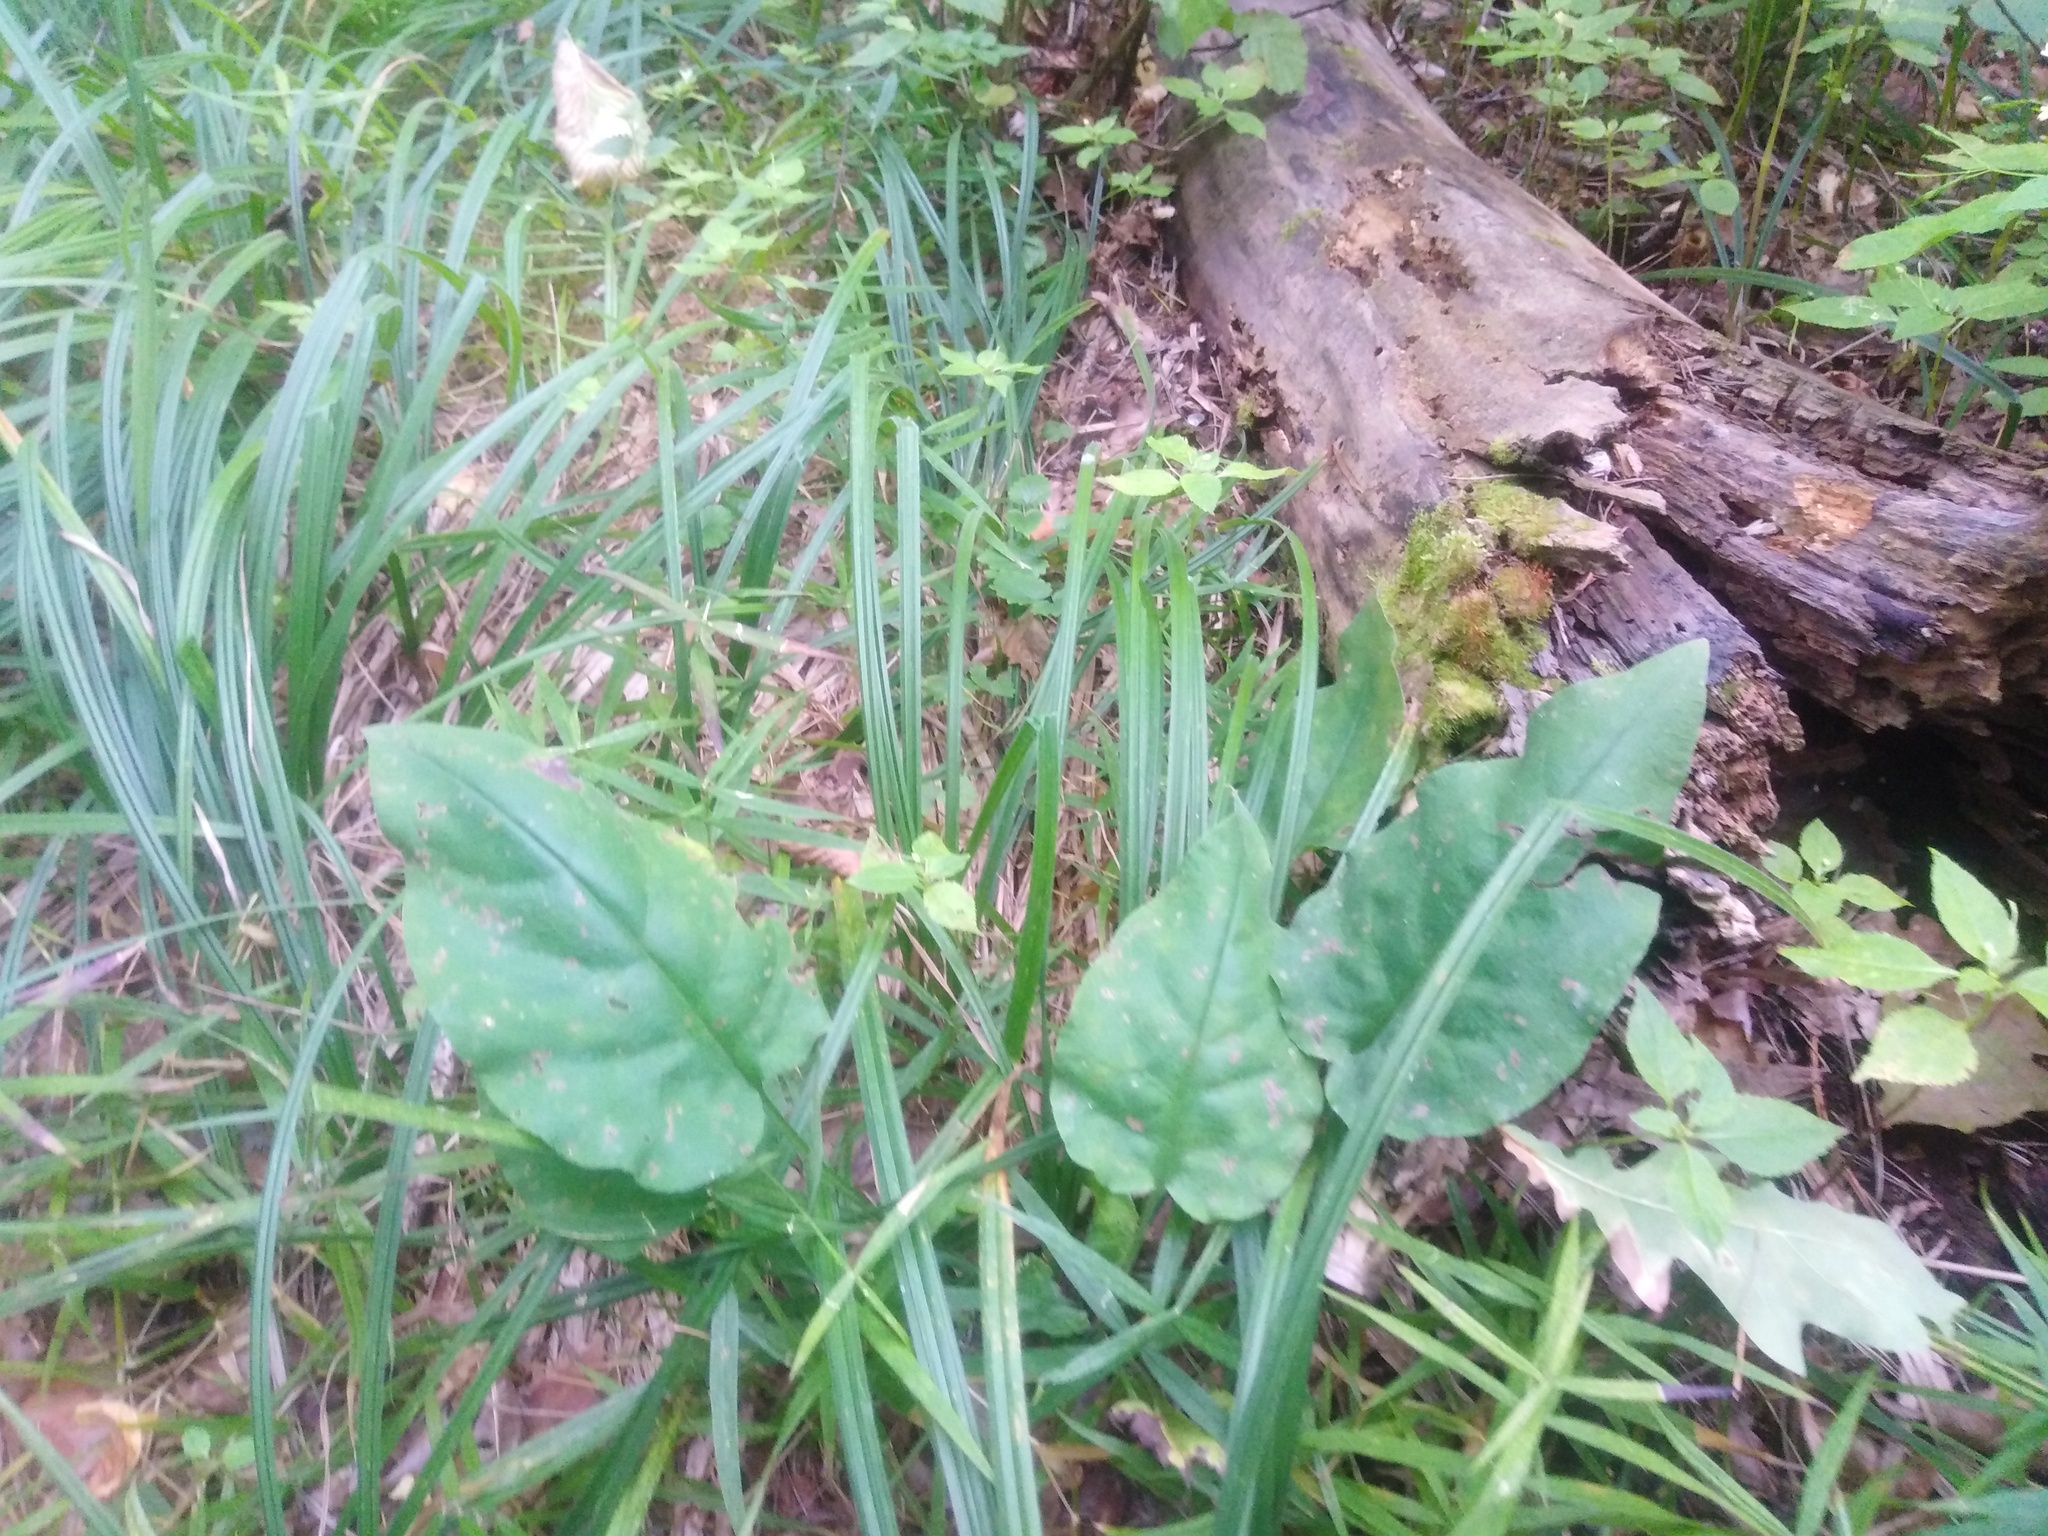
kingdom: Plantae
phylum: Tracheophyta
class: Magnoliopsida
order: Boraginales
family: Boraginaceae
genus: Pulmonaria
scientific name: Pulmonaria obscura
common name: Suffolk lungwort
